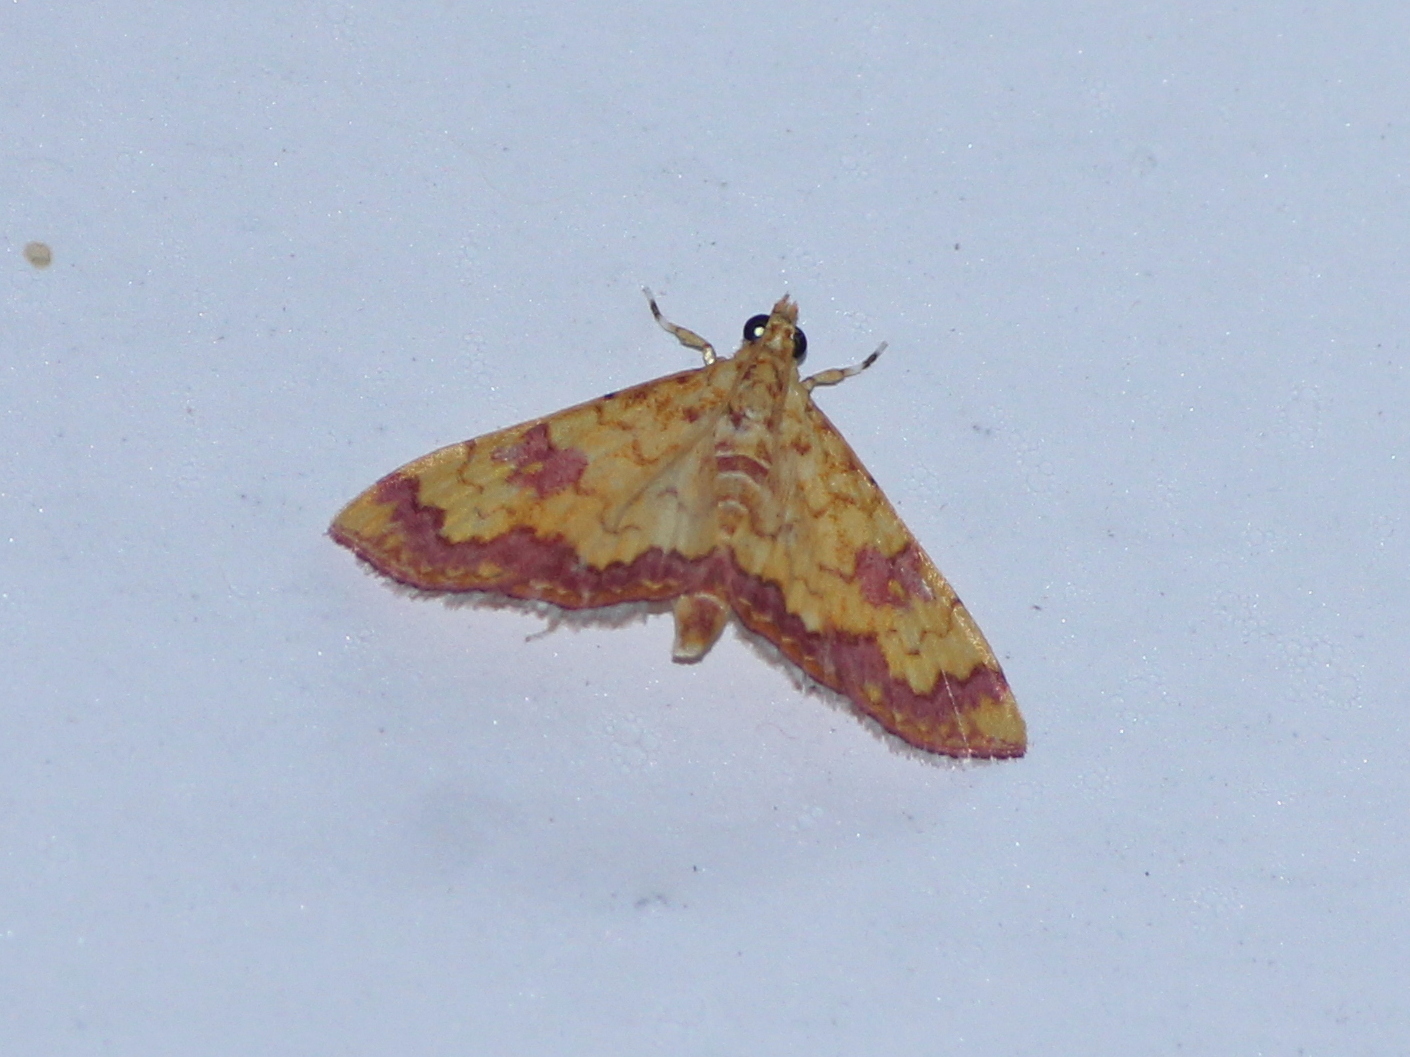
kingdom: Animalia
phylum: Arthropoda
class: Insecta
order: Lepidoptera
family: Crambidae
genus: Isocentris
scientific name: Isocentris filalis
